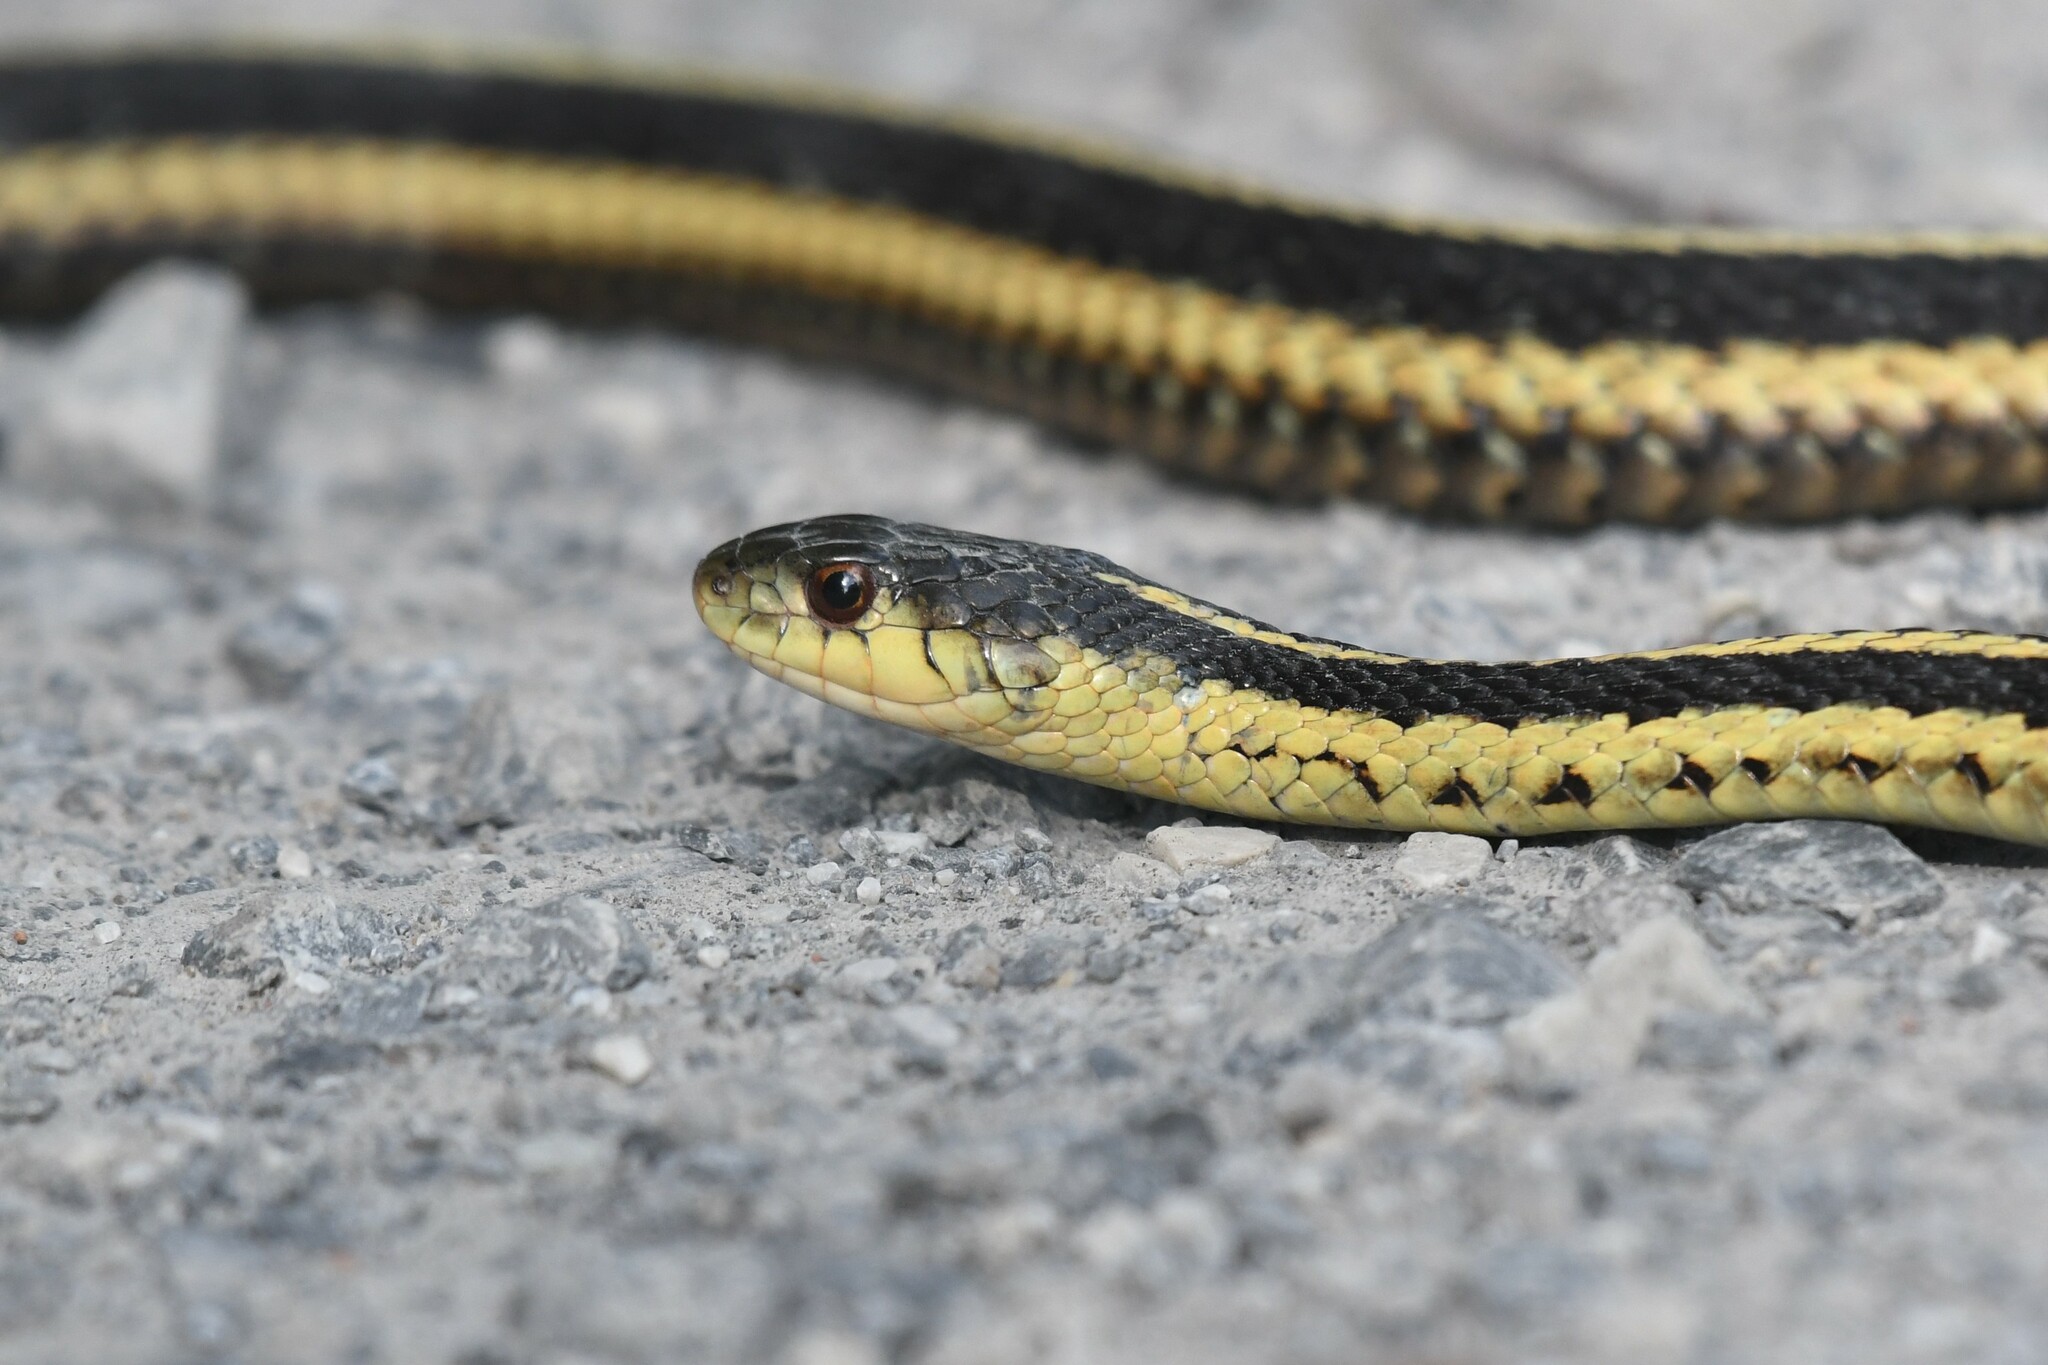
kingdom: Animalia
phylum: Chordata
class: Squamata
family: Colubridae
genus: Thamnophis
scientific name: Thamnophis sirtalis
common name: Common garter snake
